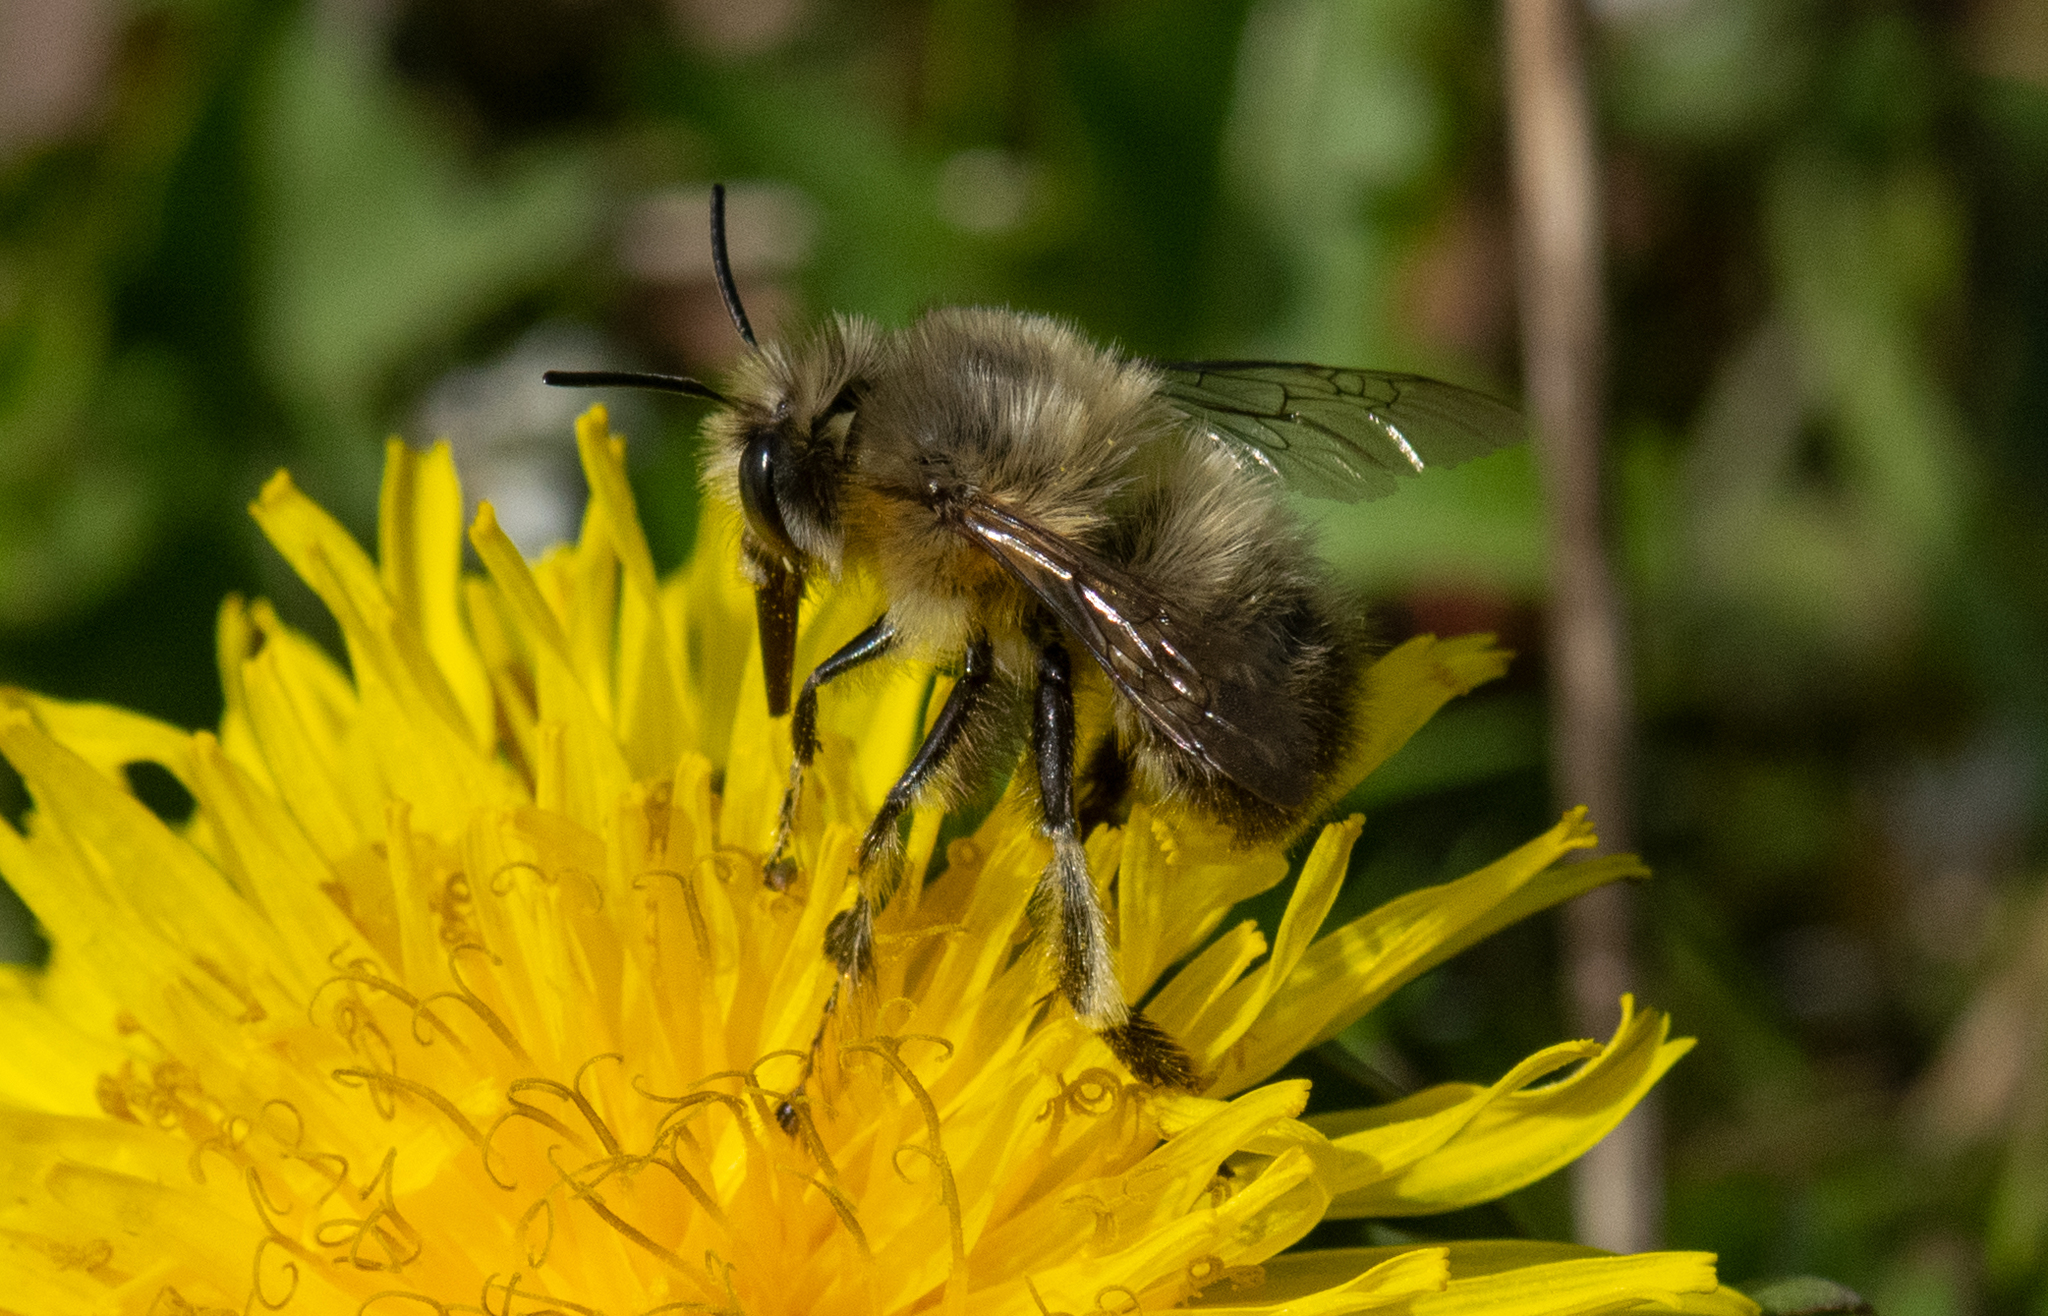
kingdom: Animalia
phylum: Arthropoda
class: Insecta
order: Hymenoptera
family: Apidae
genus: Anthophora
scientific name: Anthophora plumipes
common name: Hairy-footed flower bee
